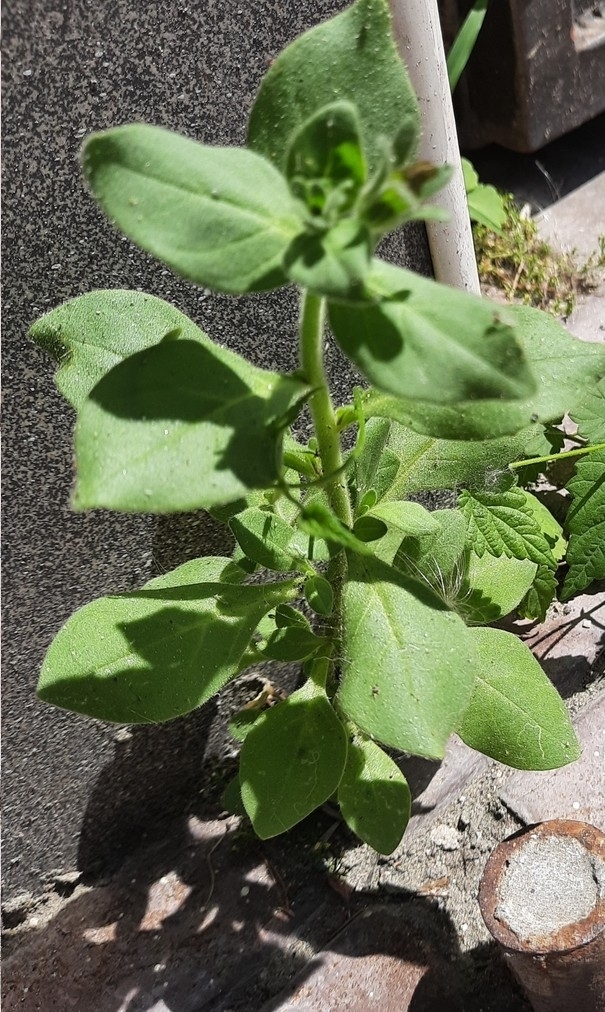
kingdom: Plantae
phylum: Tracheophyta
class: Magnoliopsida
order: Solanales
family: Solanaceae
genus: Petunia
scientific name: Petunia atkinsiana
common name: Petunia
